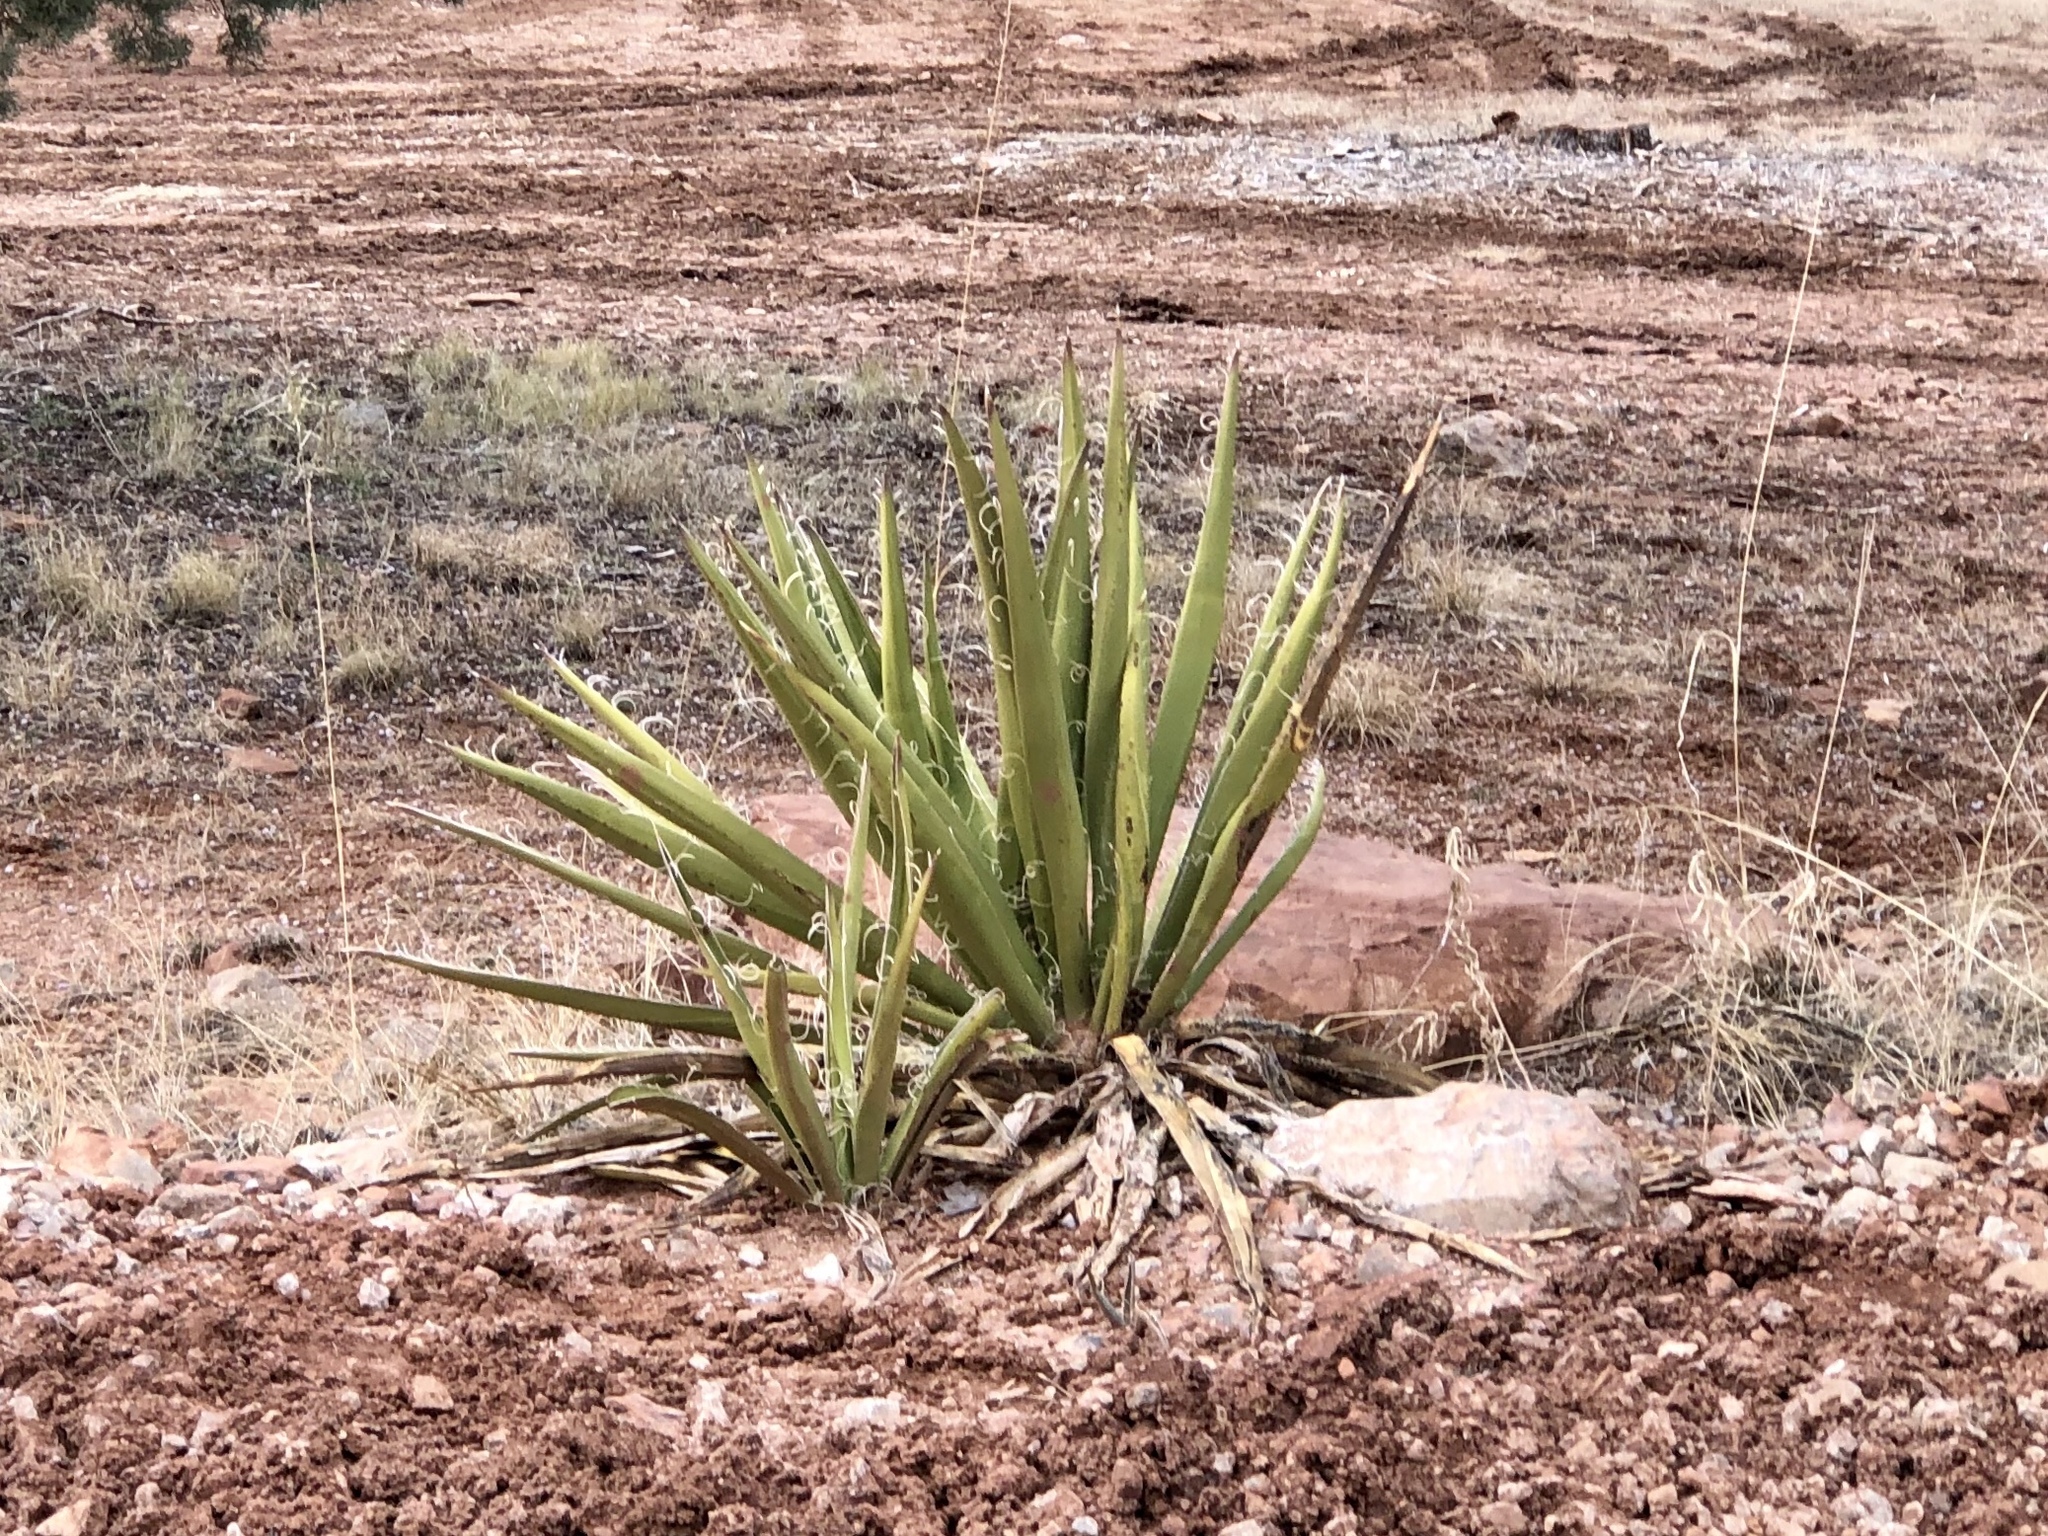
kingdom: Plantae
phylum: Tracheophyta
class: Liliopsida
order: Asparagales
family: Asparagaceae
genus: Yucca
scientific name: Yucca baccata
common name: Banana yucca
